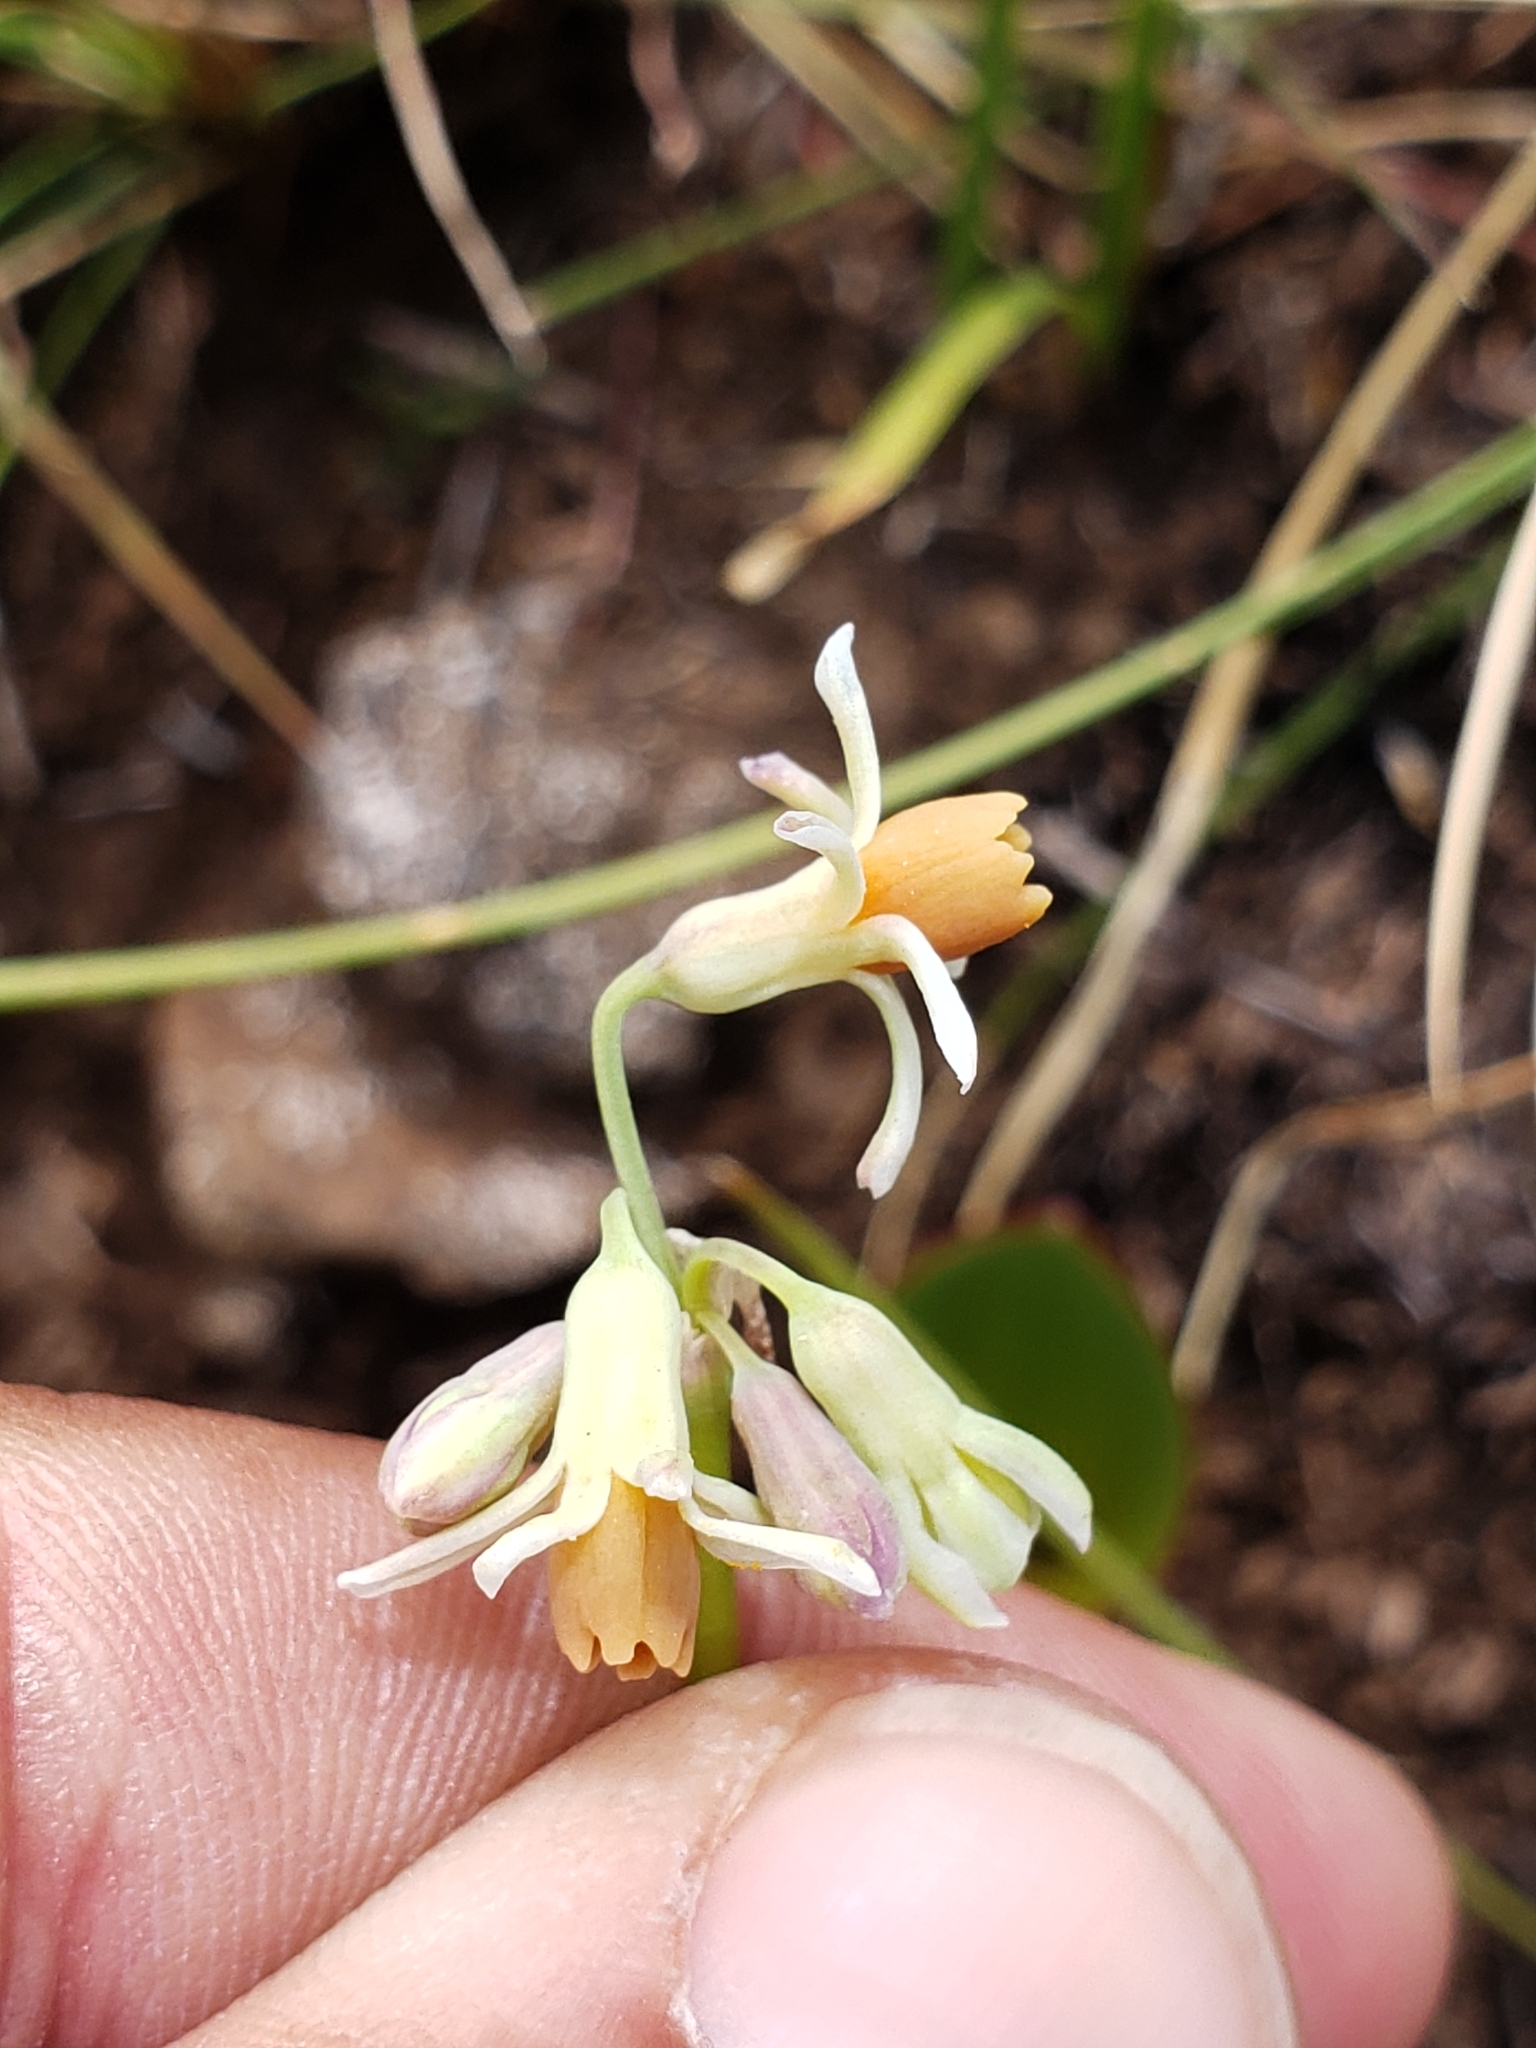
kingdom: Plantae
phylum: Tracheophyta
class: Liliopsida
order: Asparagales
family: Amaryllidaceae
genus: Tulbaghia
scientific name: Tulbaghia acutiloba
